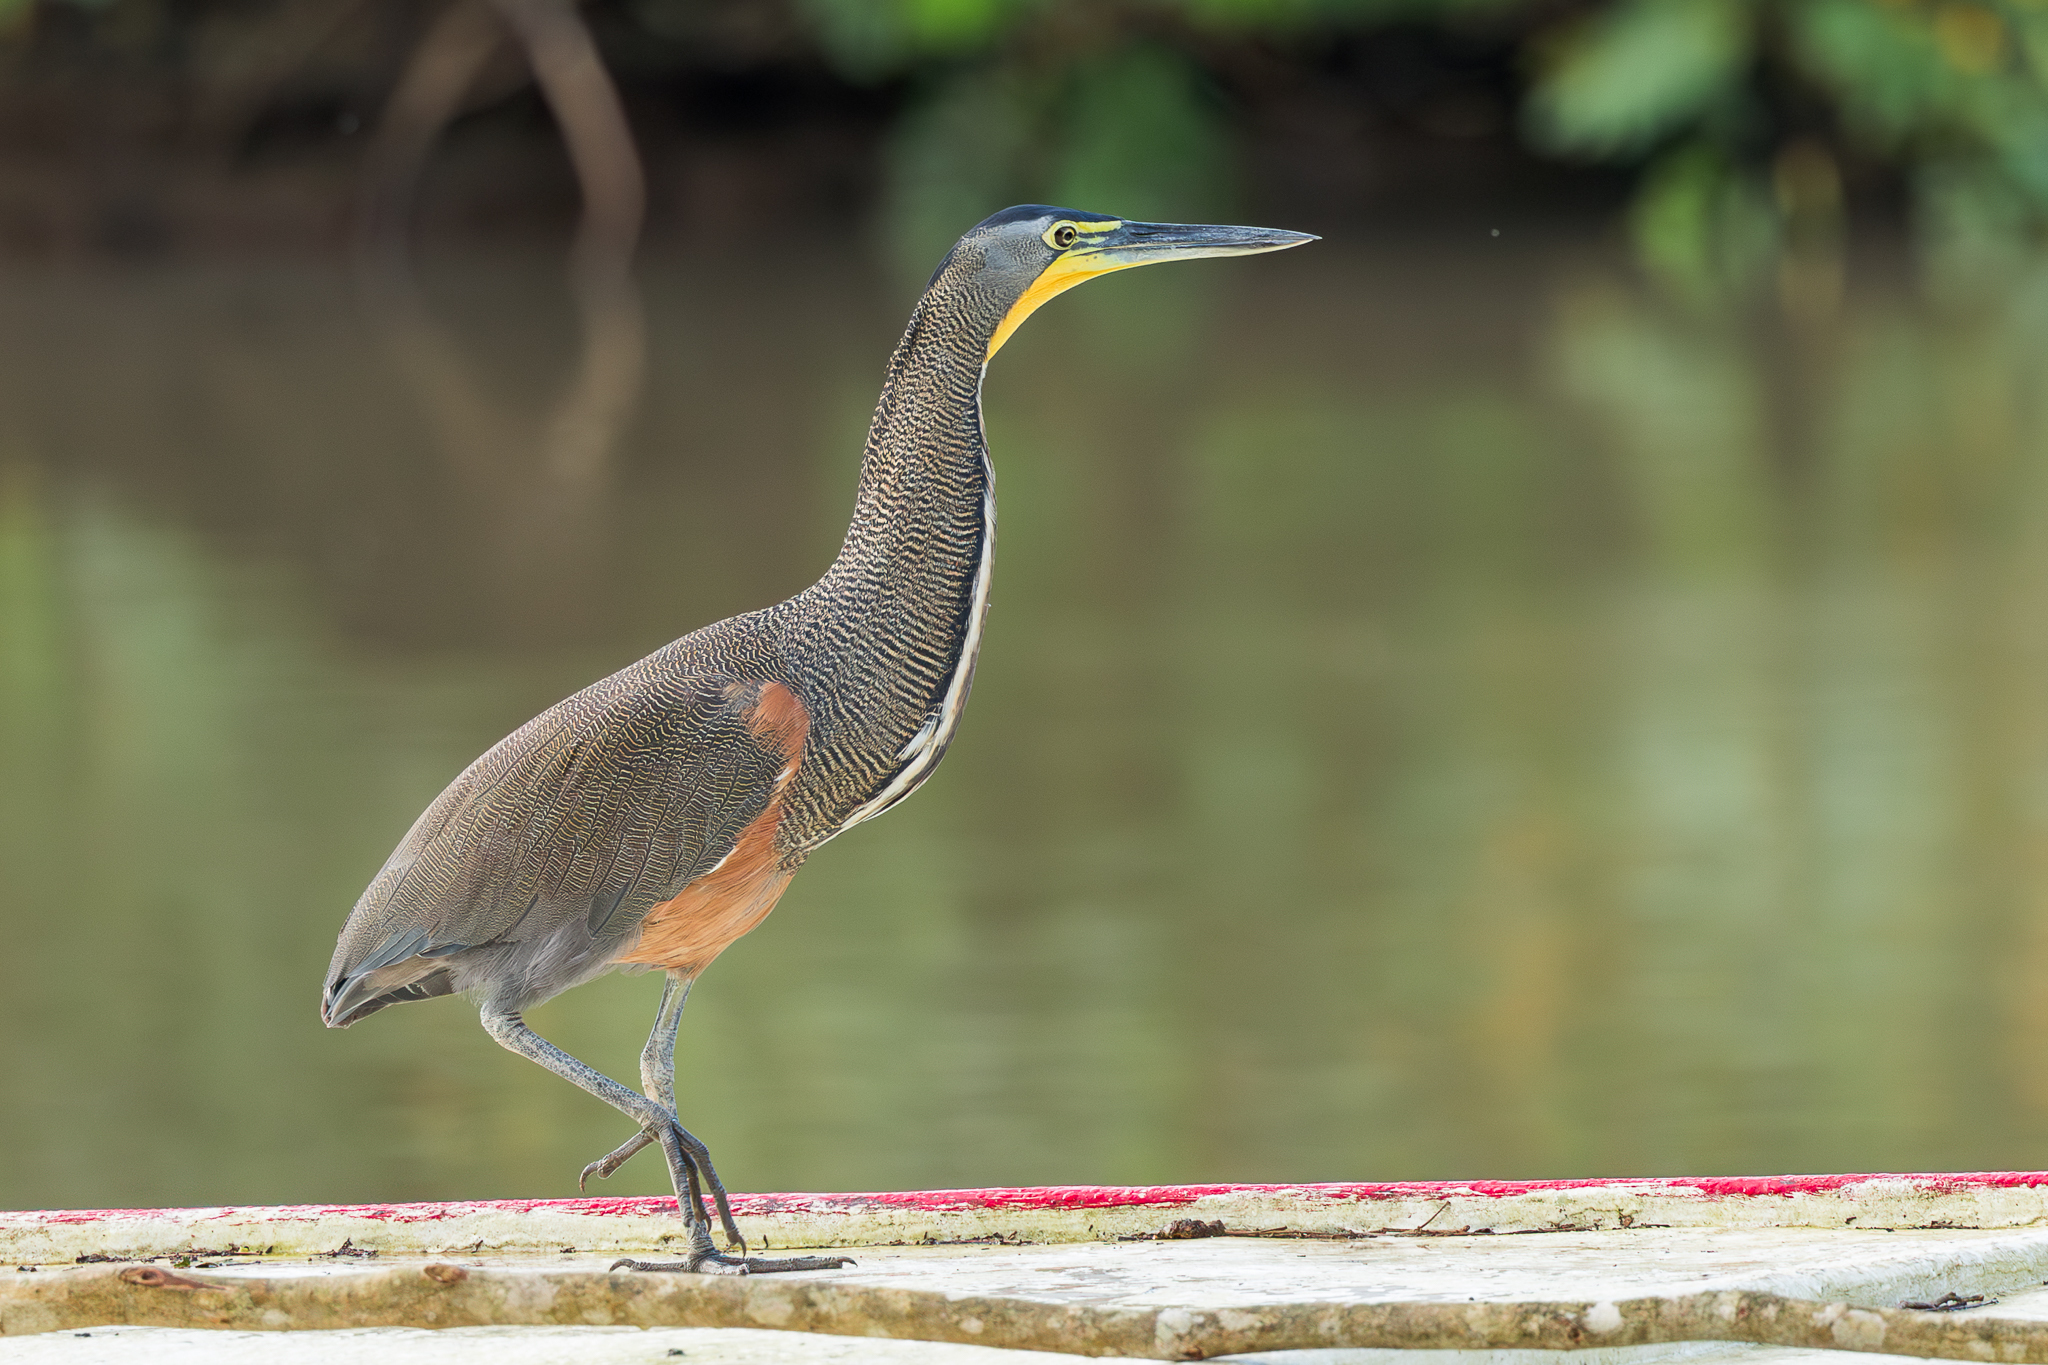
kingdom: Animalia
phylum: Chordata
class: Aves
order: Pelecaniformes
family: Ardeidae
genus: Tigrisoma
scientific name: Tigrisoma mexicanum
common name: Bare-throated tiger-heron
